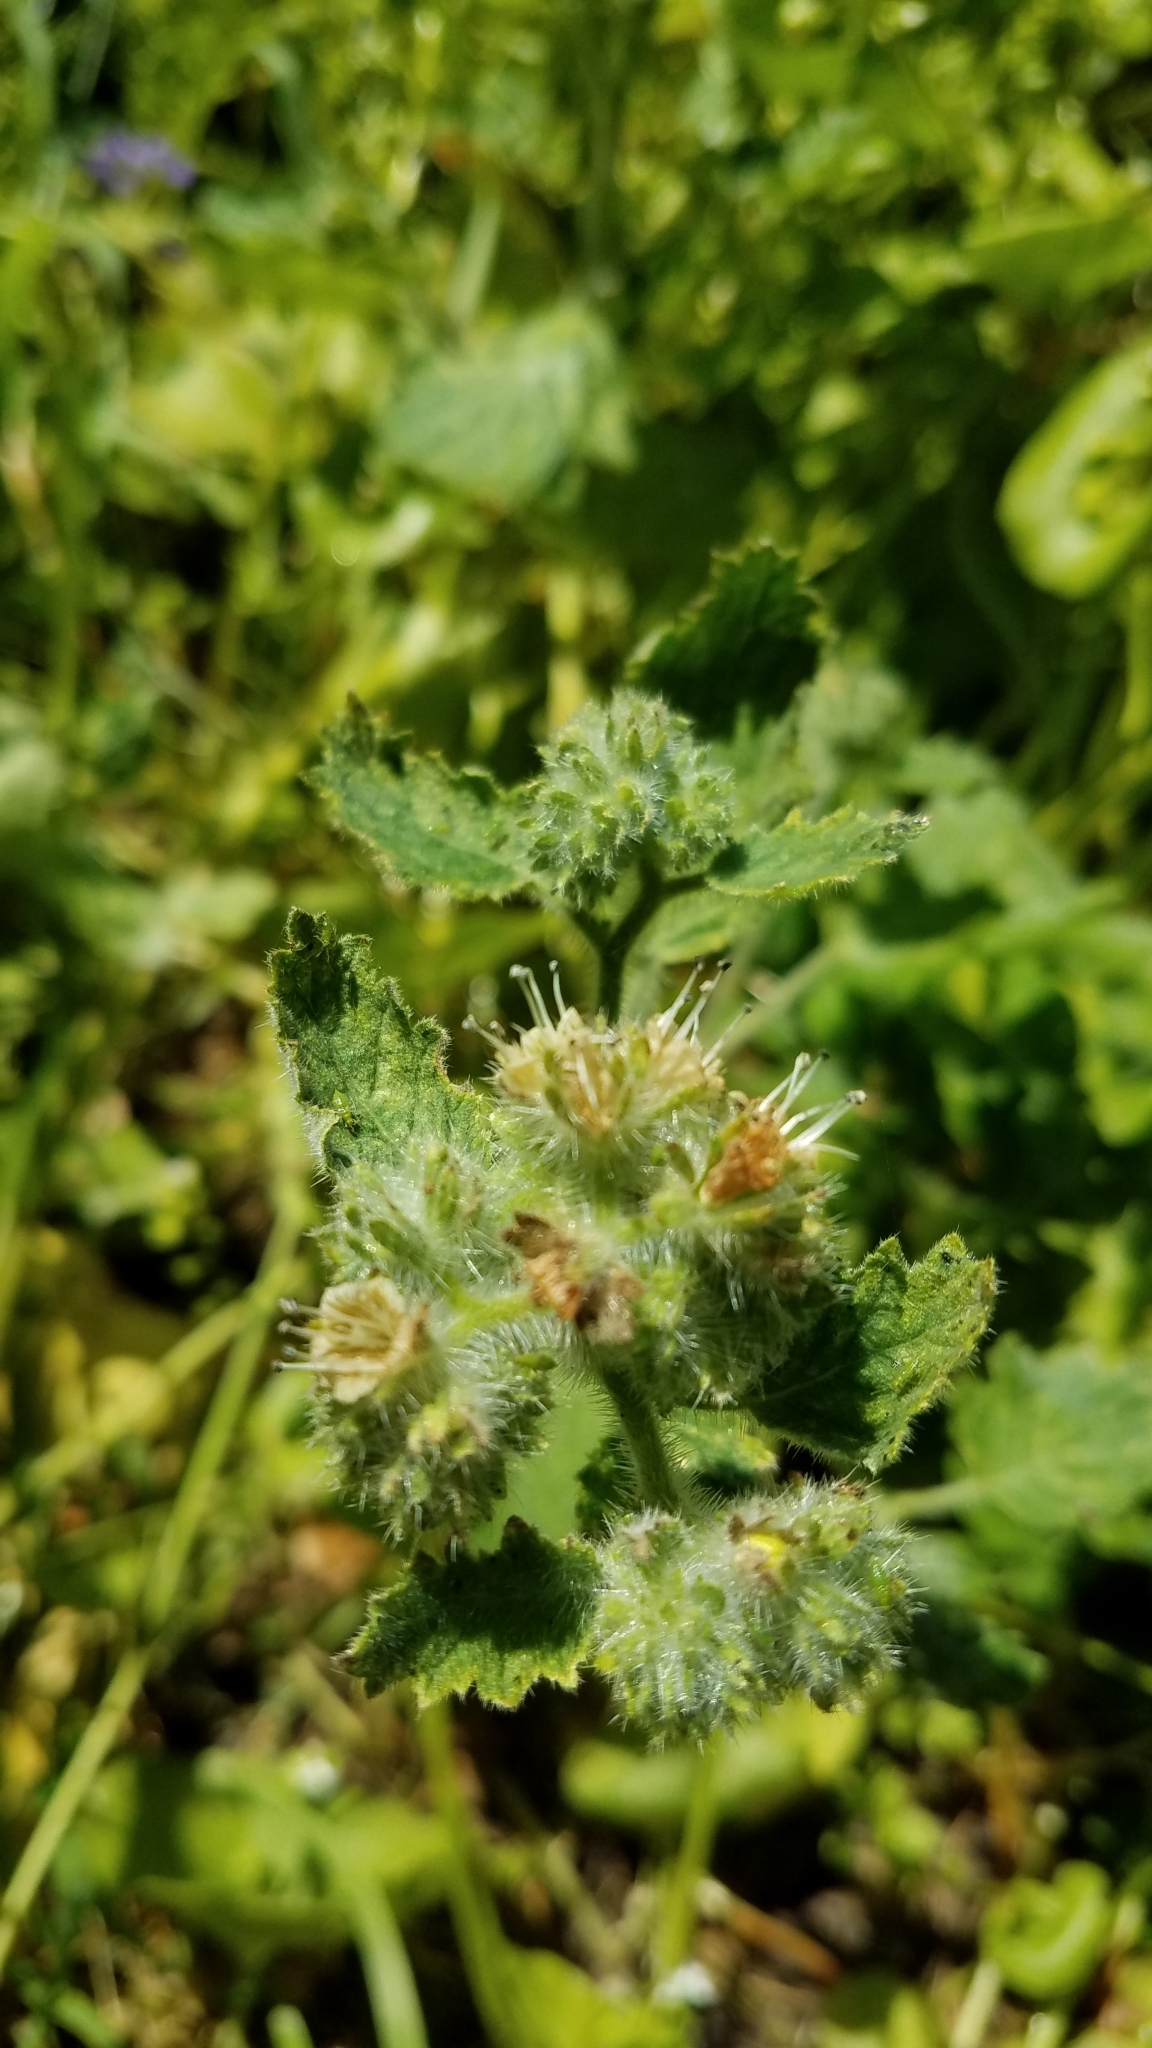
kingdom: Plantae
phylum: Tracheophyta
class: Magnoliopsida
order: Boraginales
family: Hydrophyllaceae
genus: Phacelia
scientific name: Phacelia malvifolia
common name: Mallow-leaf phacelia
